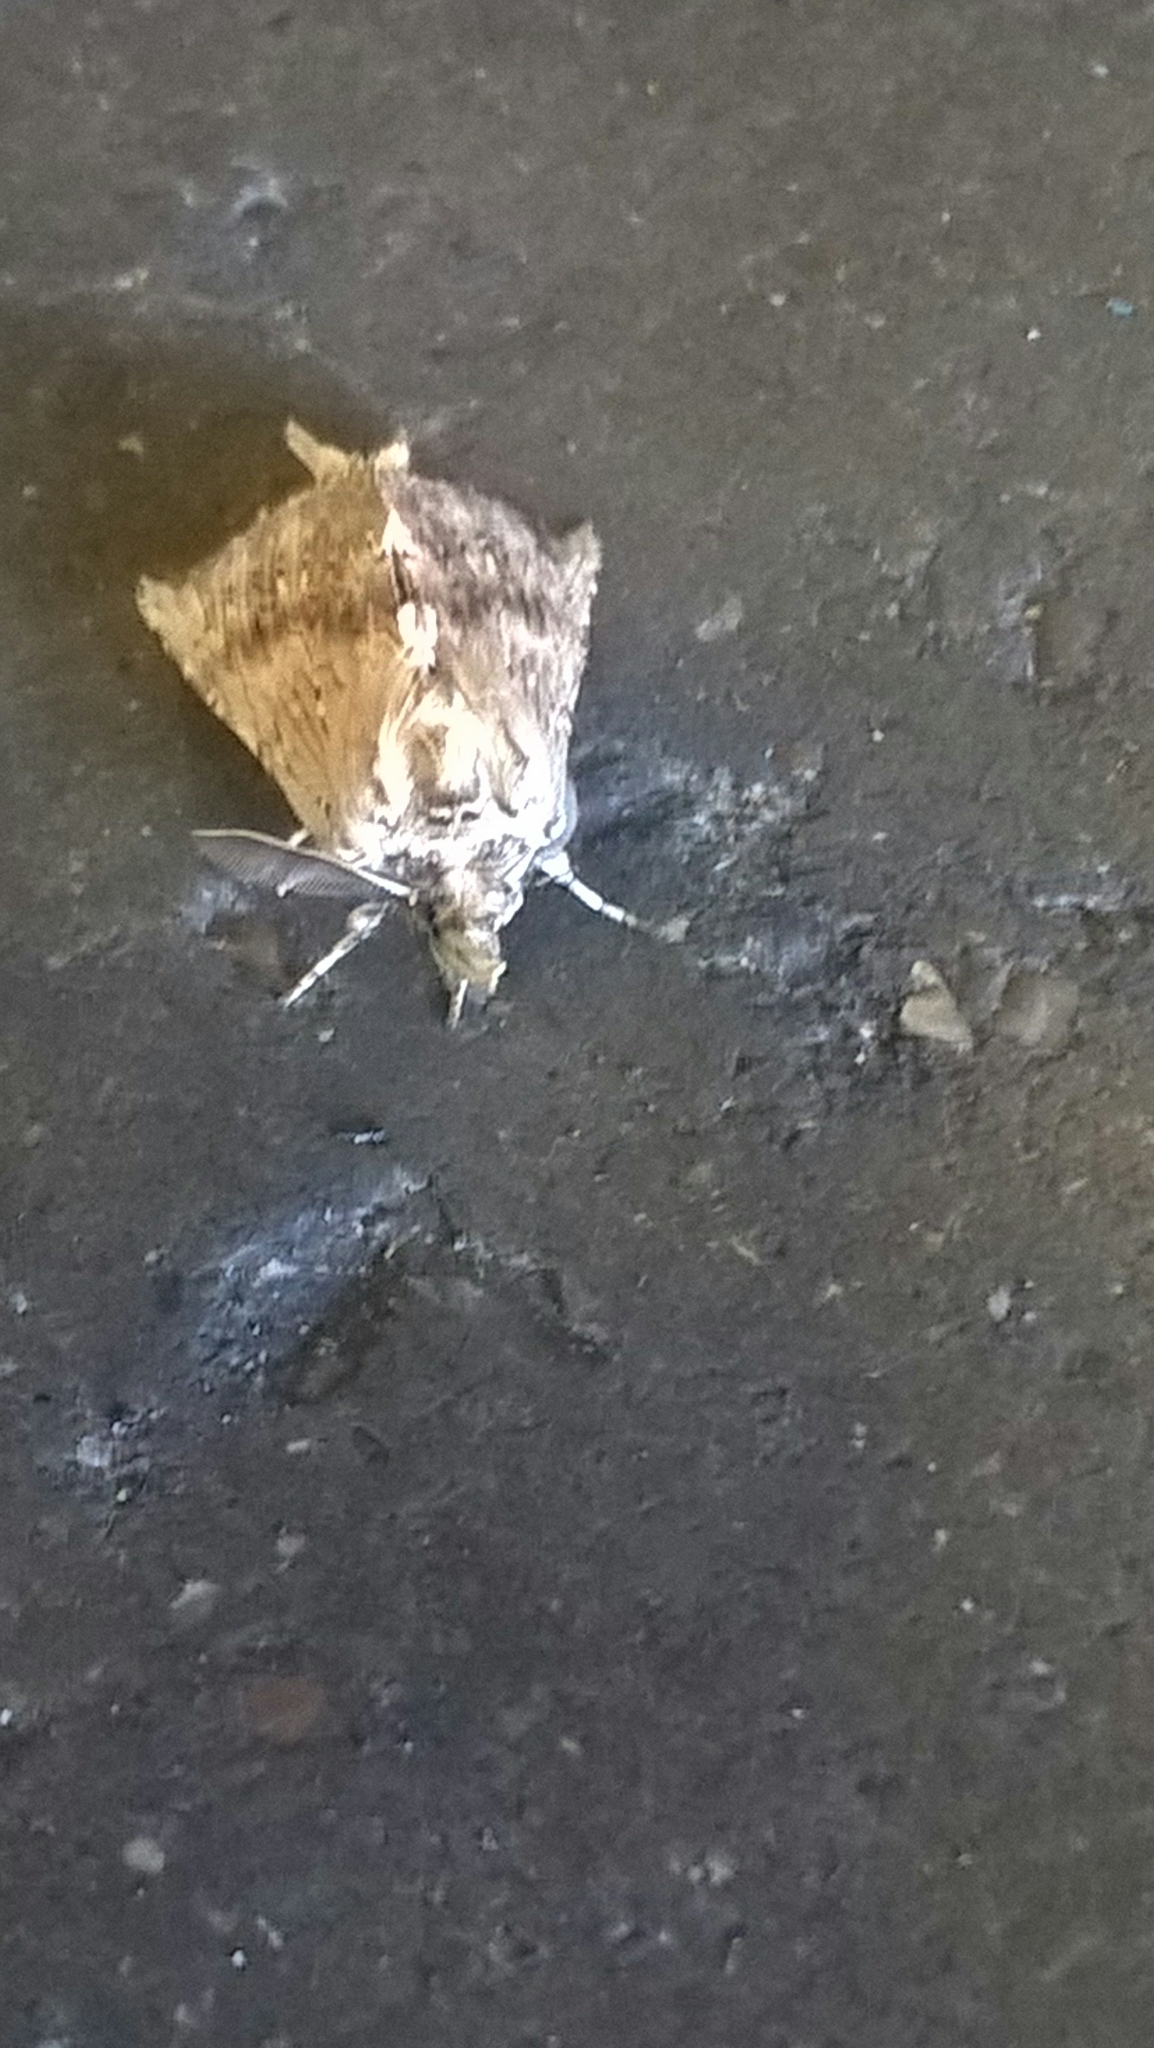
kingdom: Animalia
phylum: Arthropoda
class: Insecta
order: Lepidoptera
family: Notodontidae
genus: Pterostoma
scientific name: Pterostoma palpina
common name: Pale prominent
